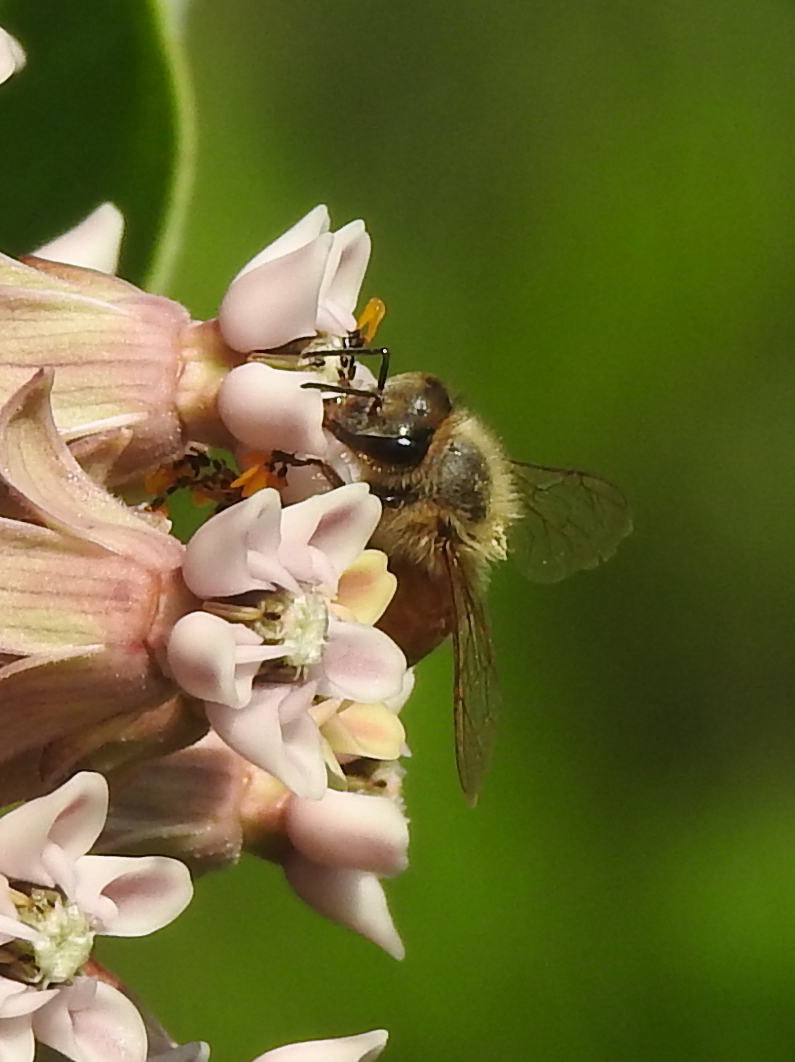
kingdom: Animalia
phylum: Arthropoda
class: Insecta
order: Hymenoptera
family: Apidae
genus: Apis
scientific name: Apis mellifera
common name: Honey bee
